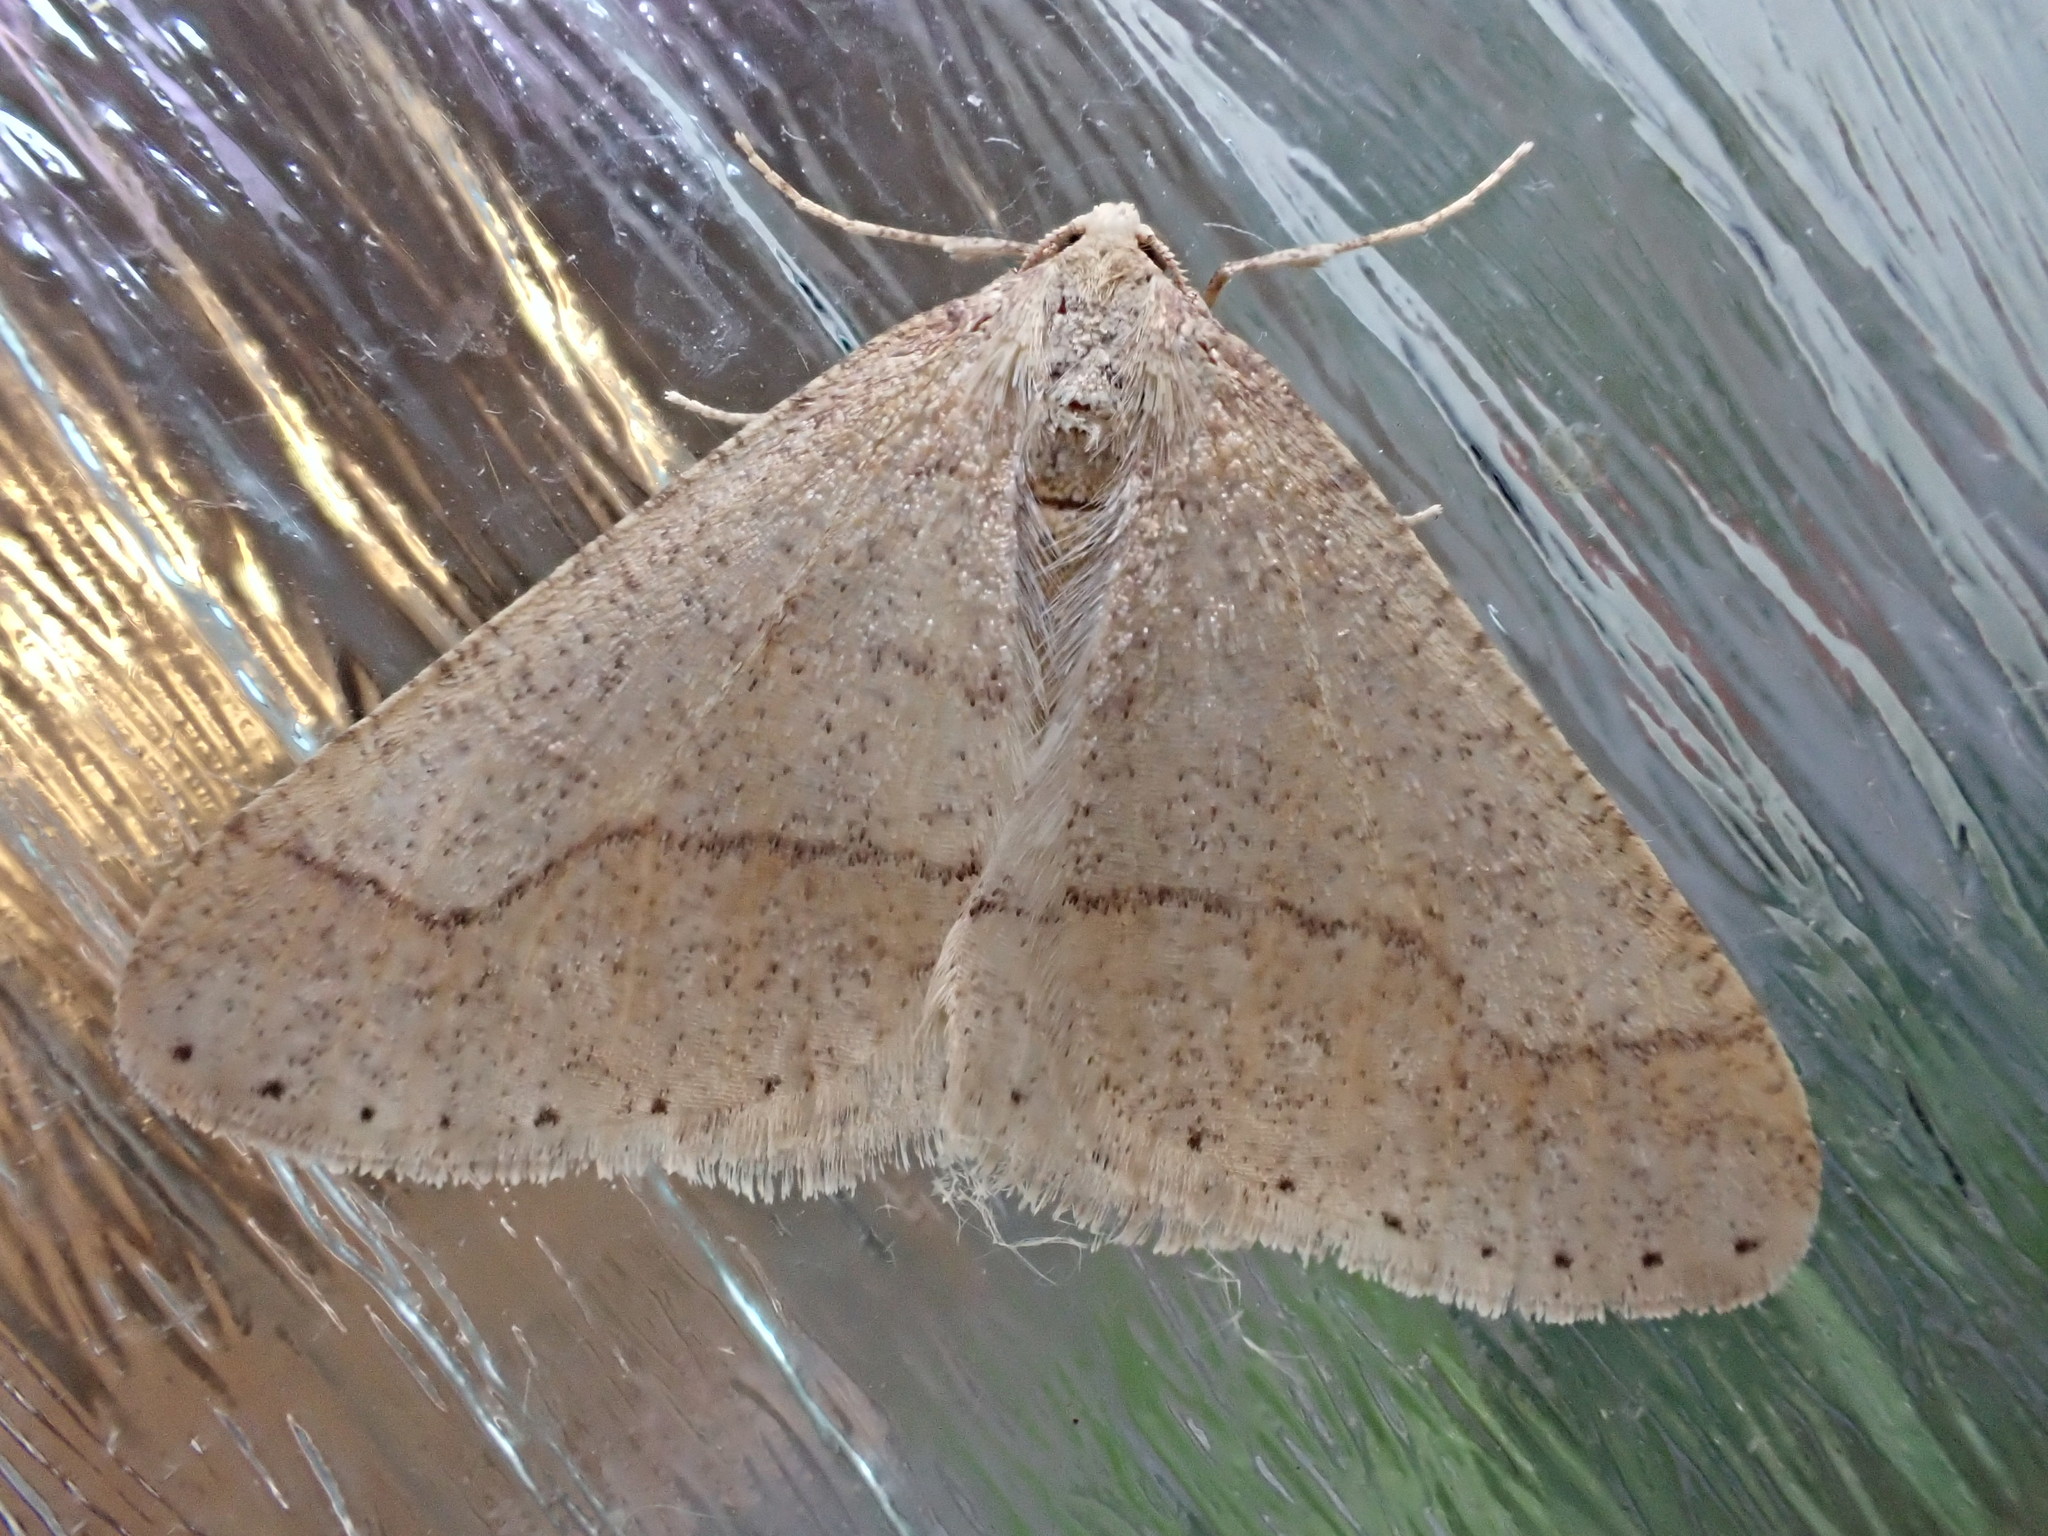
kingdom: Animalia
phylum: Arthropoda
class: Insecta
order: Lepidoptera
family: Geometridae
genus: Agriopis
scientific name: Agriopis marginaria
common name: Dotted border
